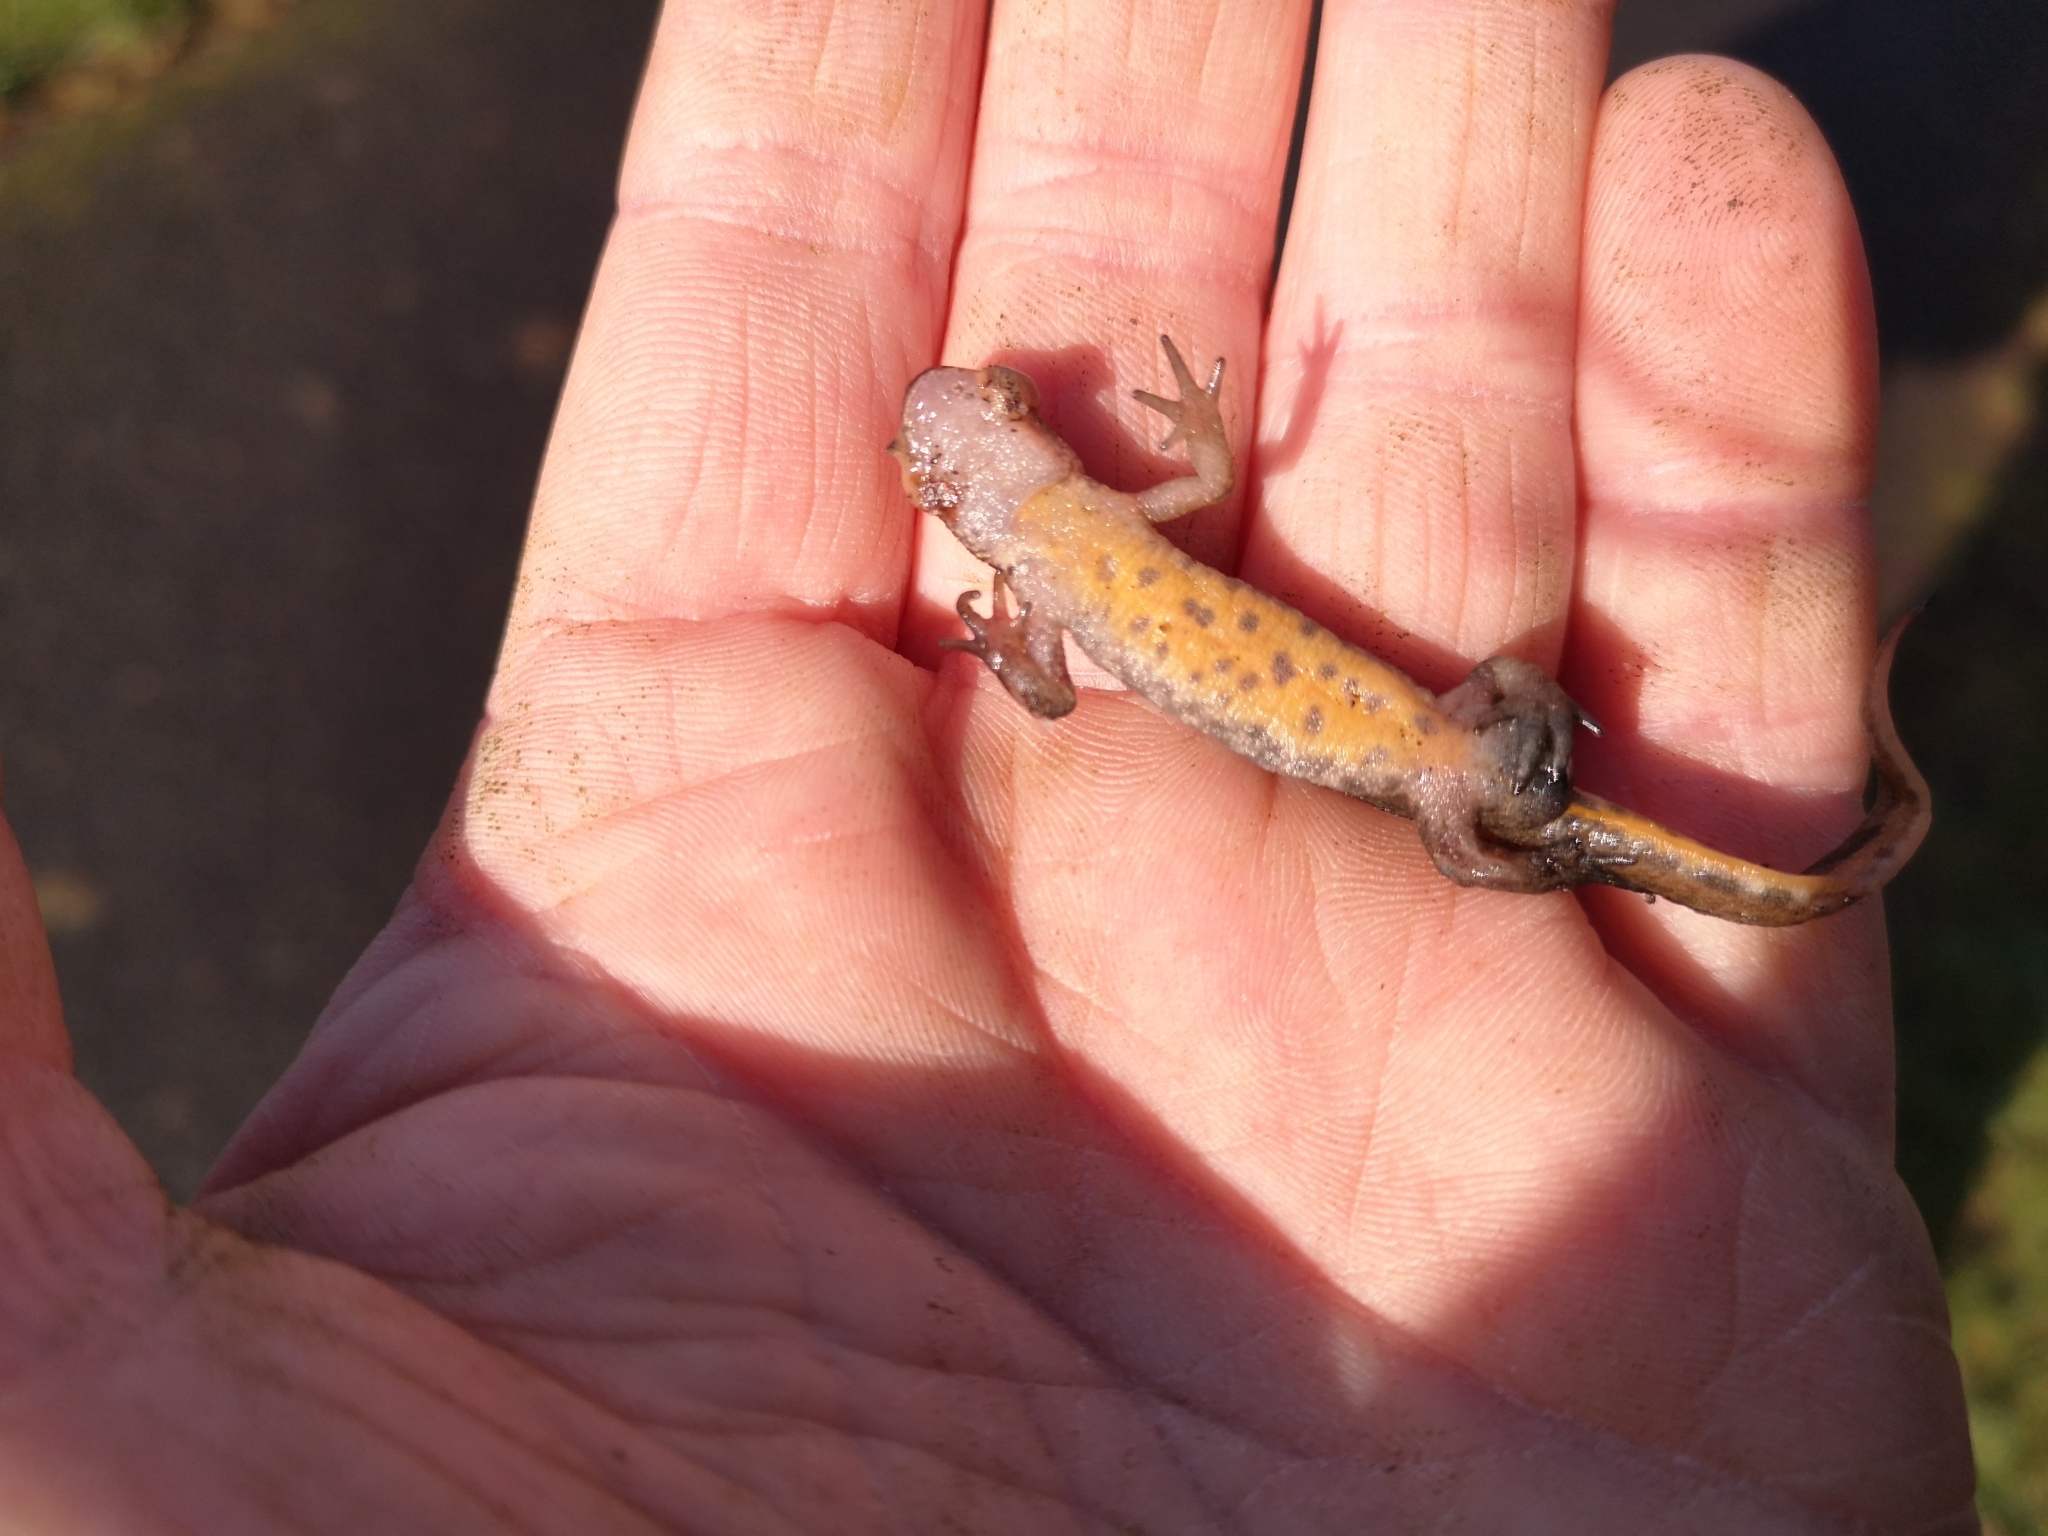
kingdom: Animalia
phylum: Chordata
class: Amphibia
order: Caudata
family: Salamandridae
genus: Lissotriton
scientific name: Lissotriton helveticus
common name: Palmate newt
